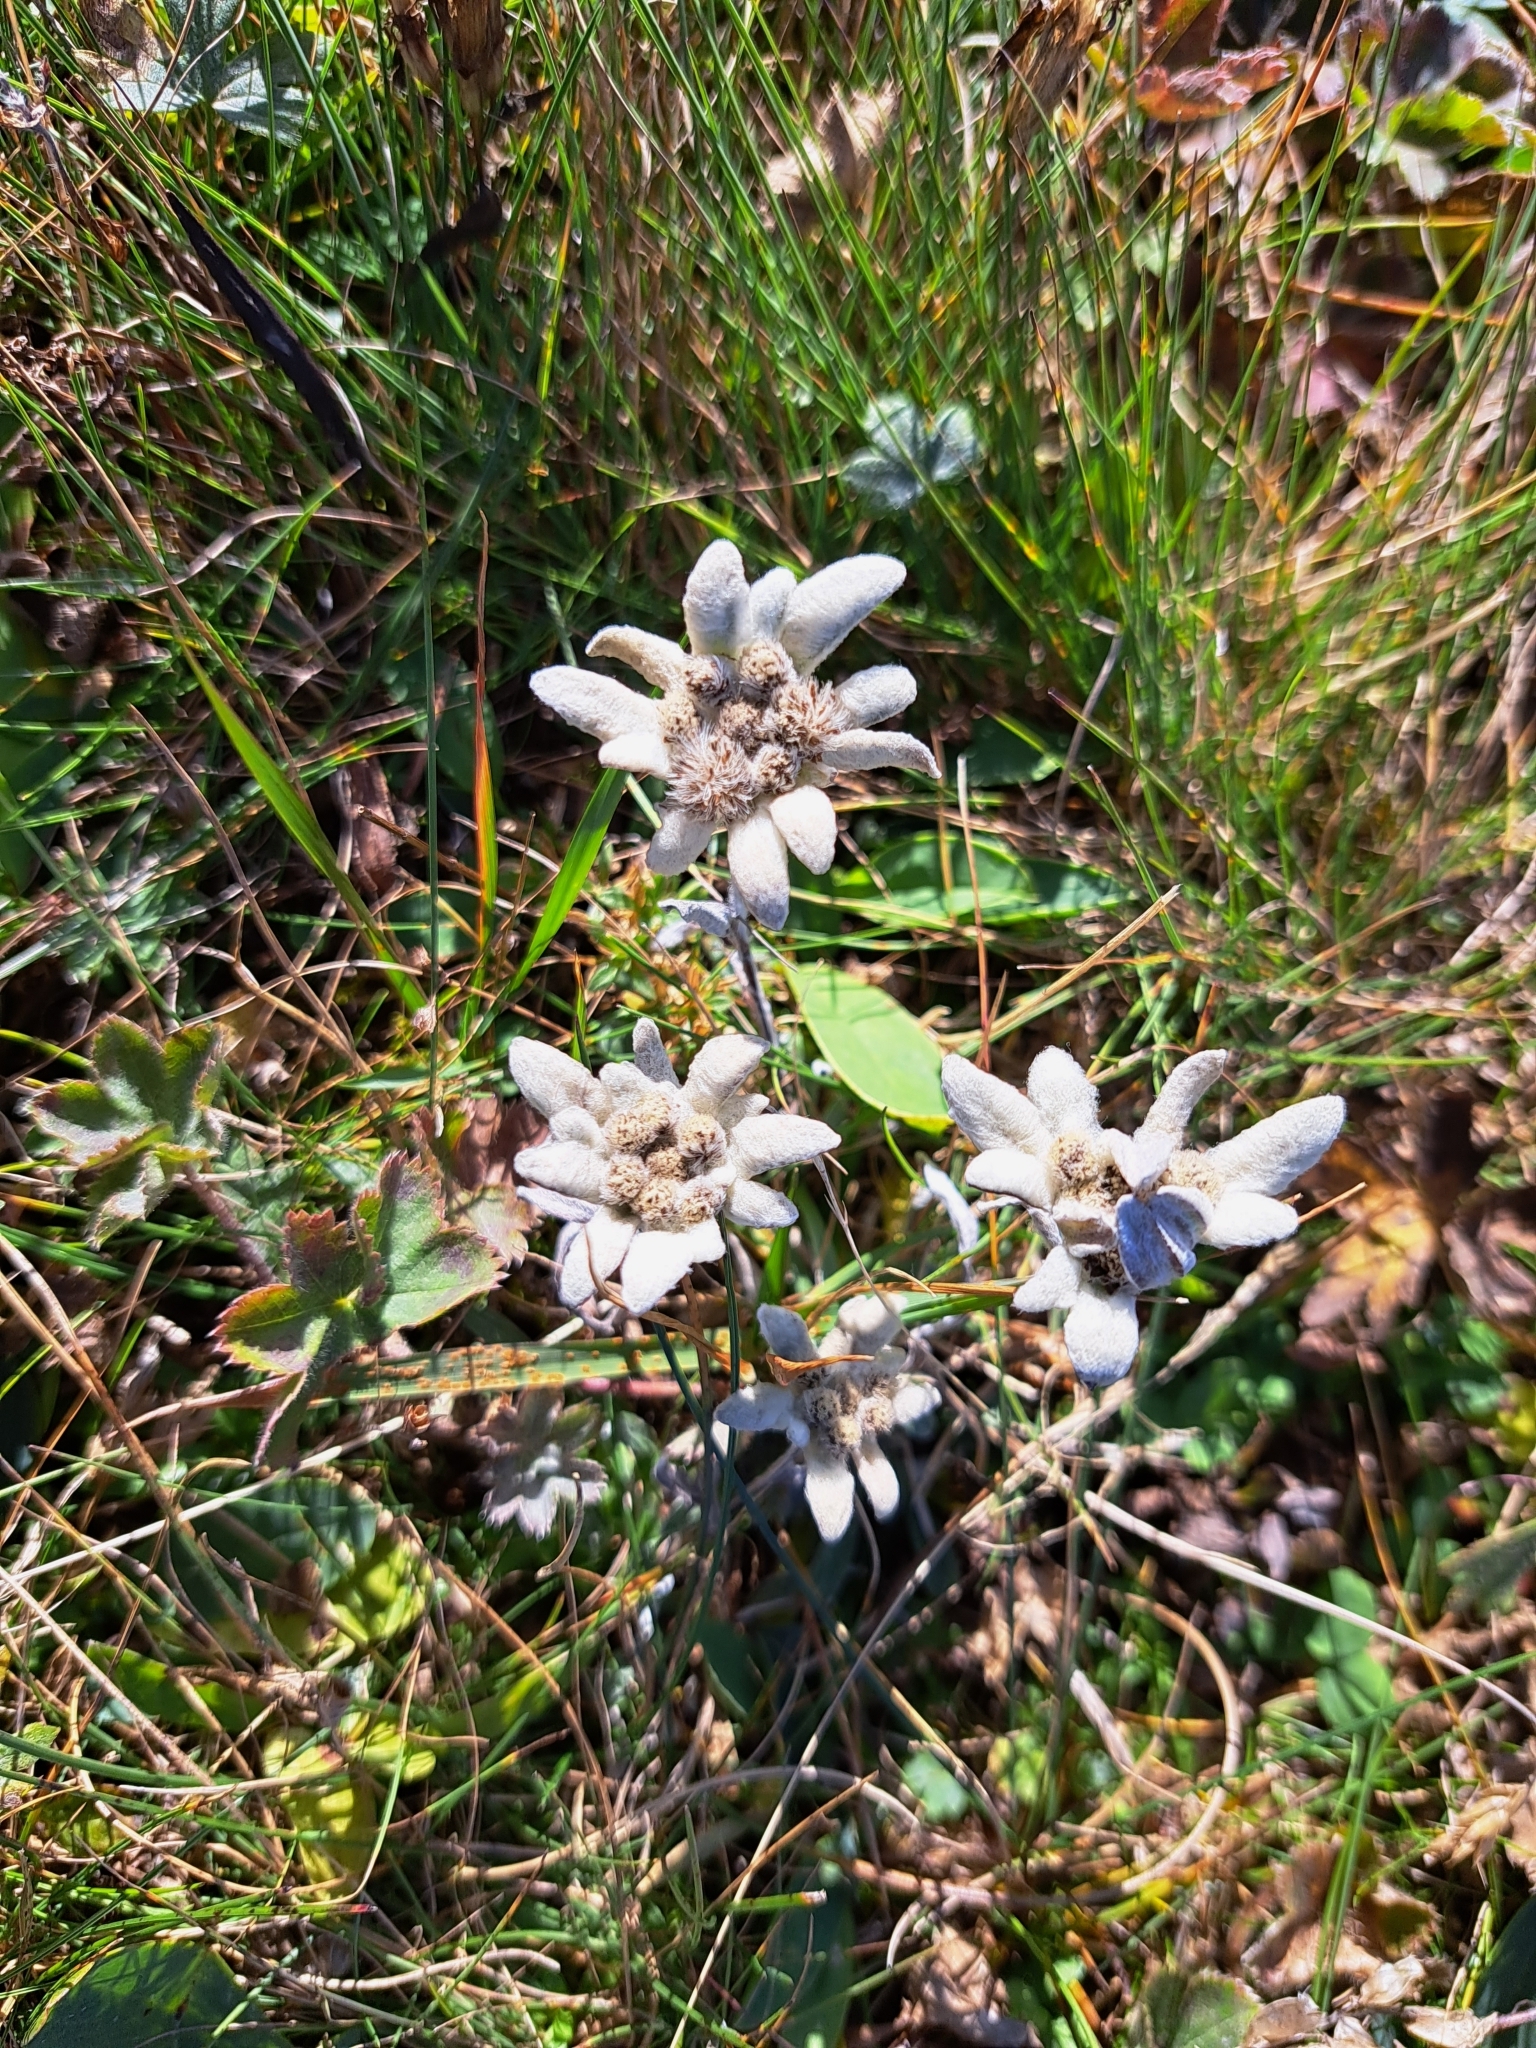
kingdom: Plantae
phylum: Tracheophyta
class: Magnoliopsida
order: Asterales
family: Asteraceae
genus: Leontopodium
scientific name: Leontopodium nivale
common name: Edelweiss
